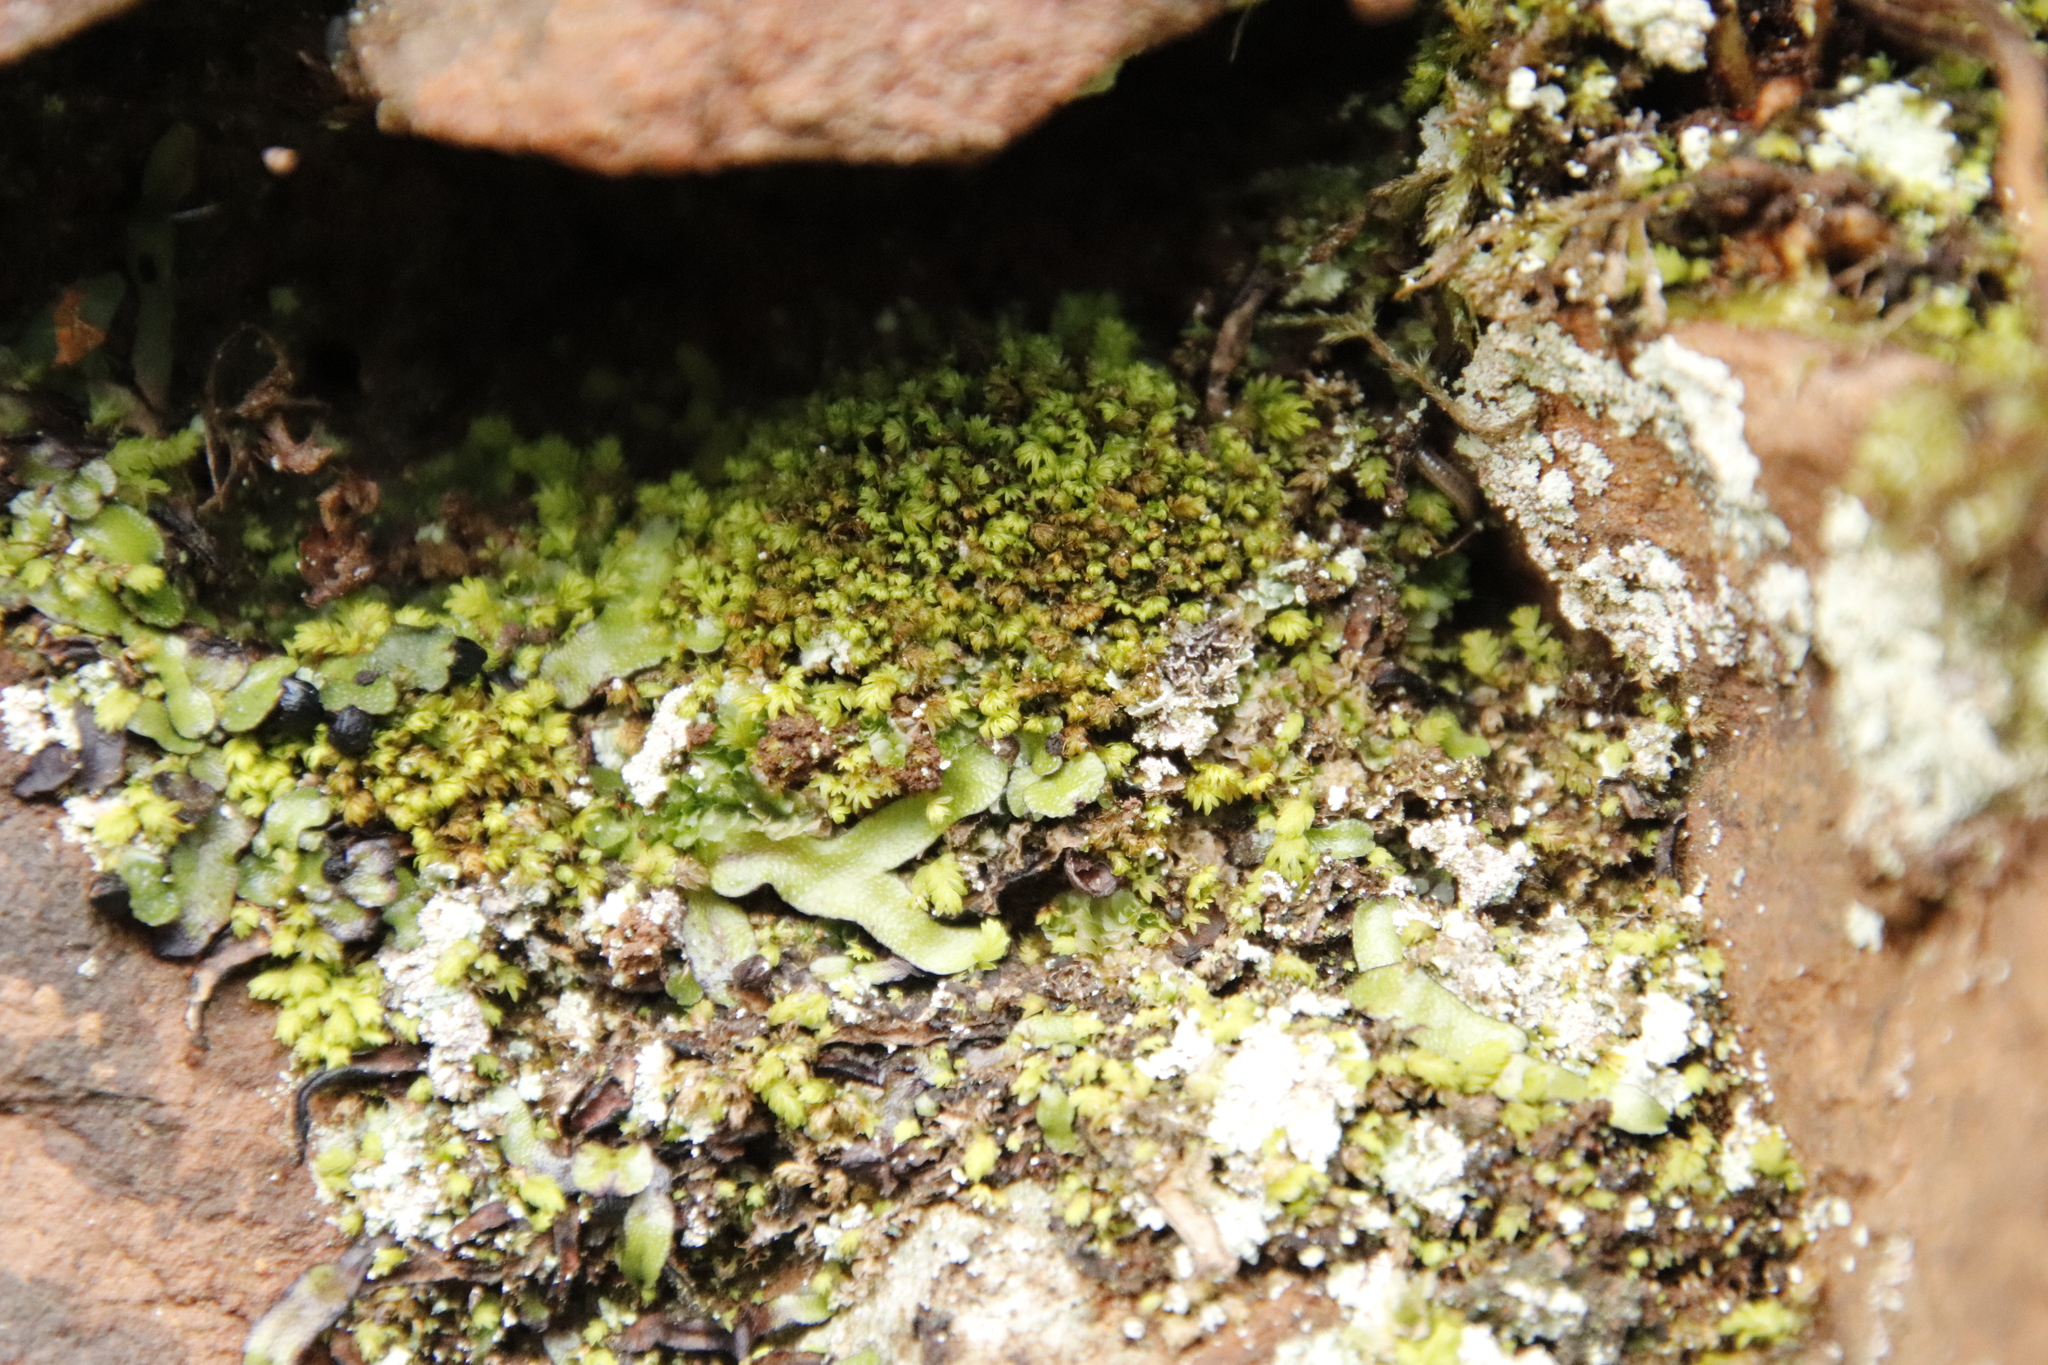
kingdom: Plantae
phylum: Marchantiophyta
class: Marchantiopsida
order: Marchantiales
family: Targioniaceae
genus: Targionia
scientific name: Targionia hypophylla
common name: Orobus-seed liverwort
